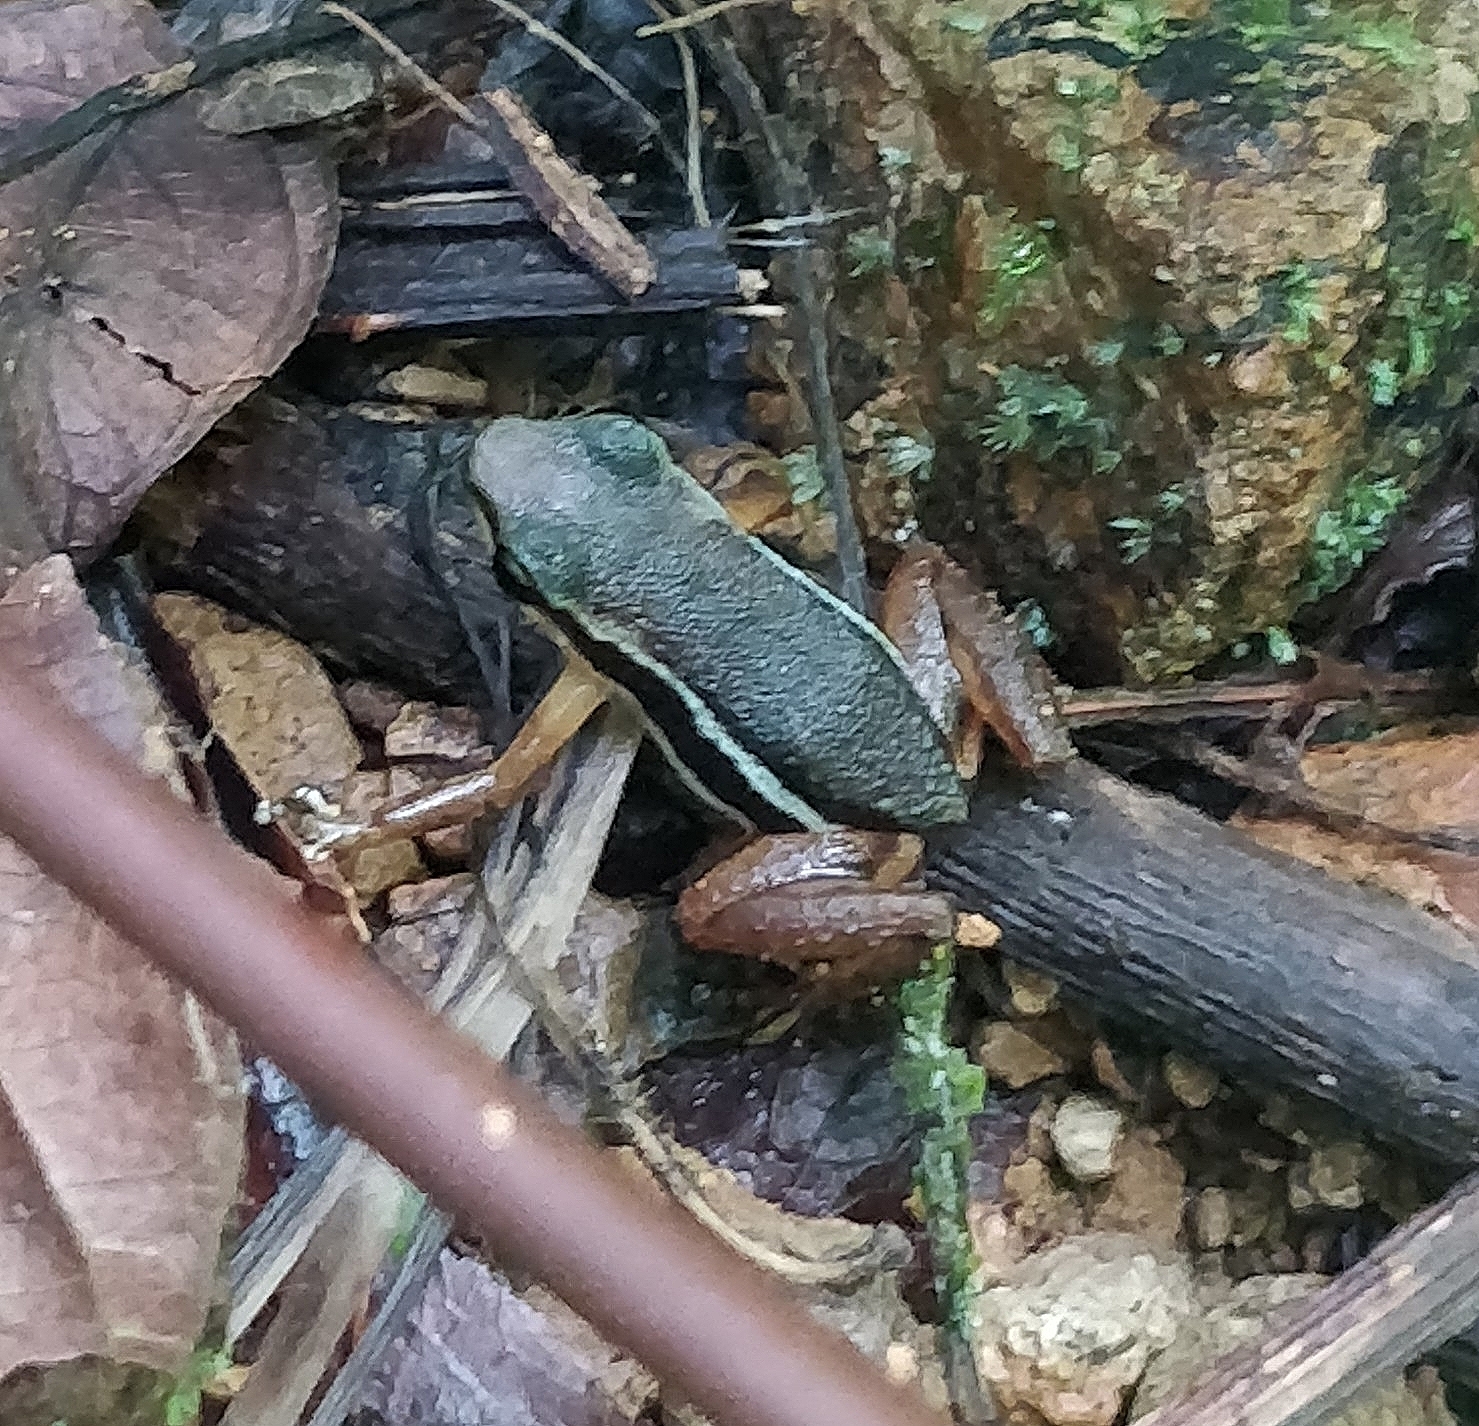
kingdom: Animalia
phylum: Chordata
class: Amphibia
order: Anura
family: Dendrobatidae
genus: Silverstoneia
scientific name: Silverstoneia flotator
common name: Rainforest rocket frog
